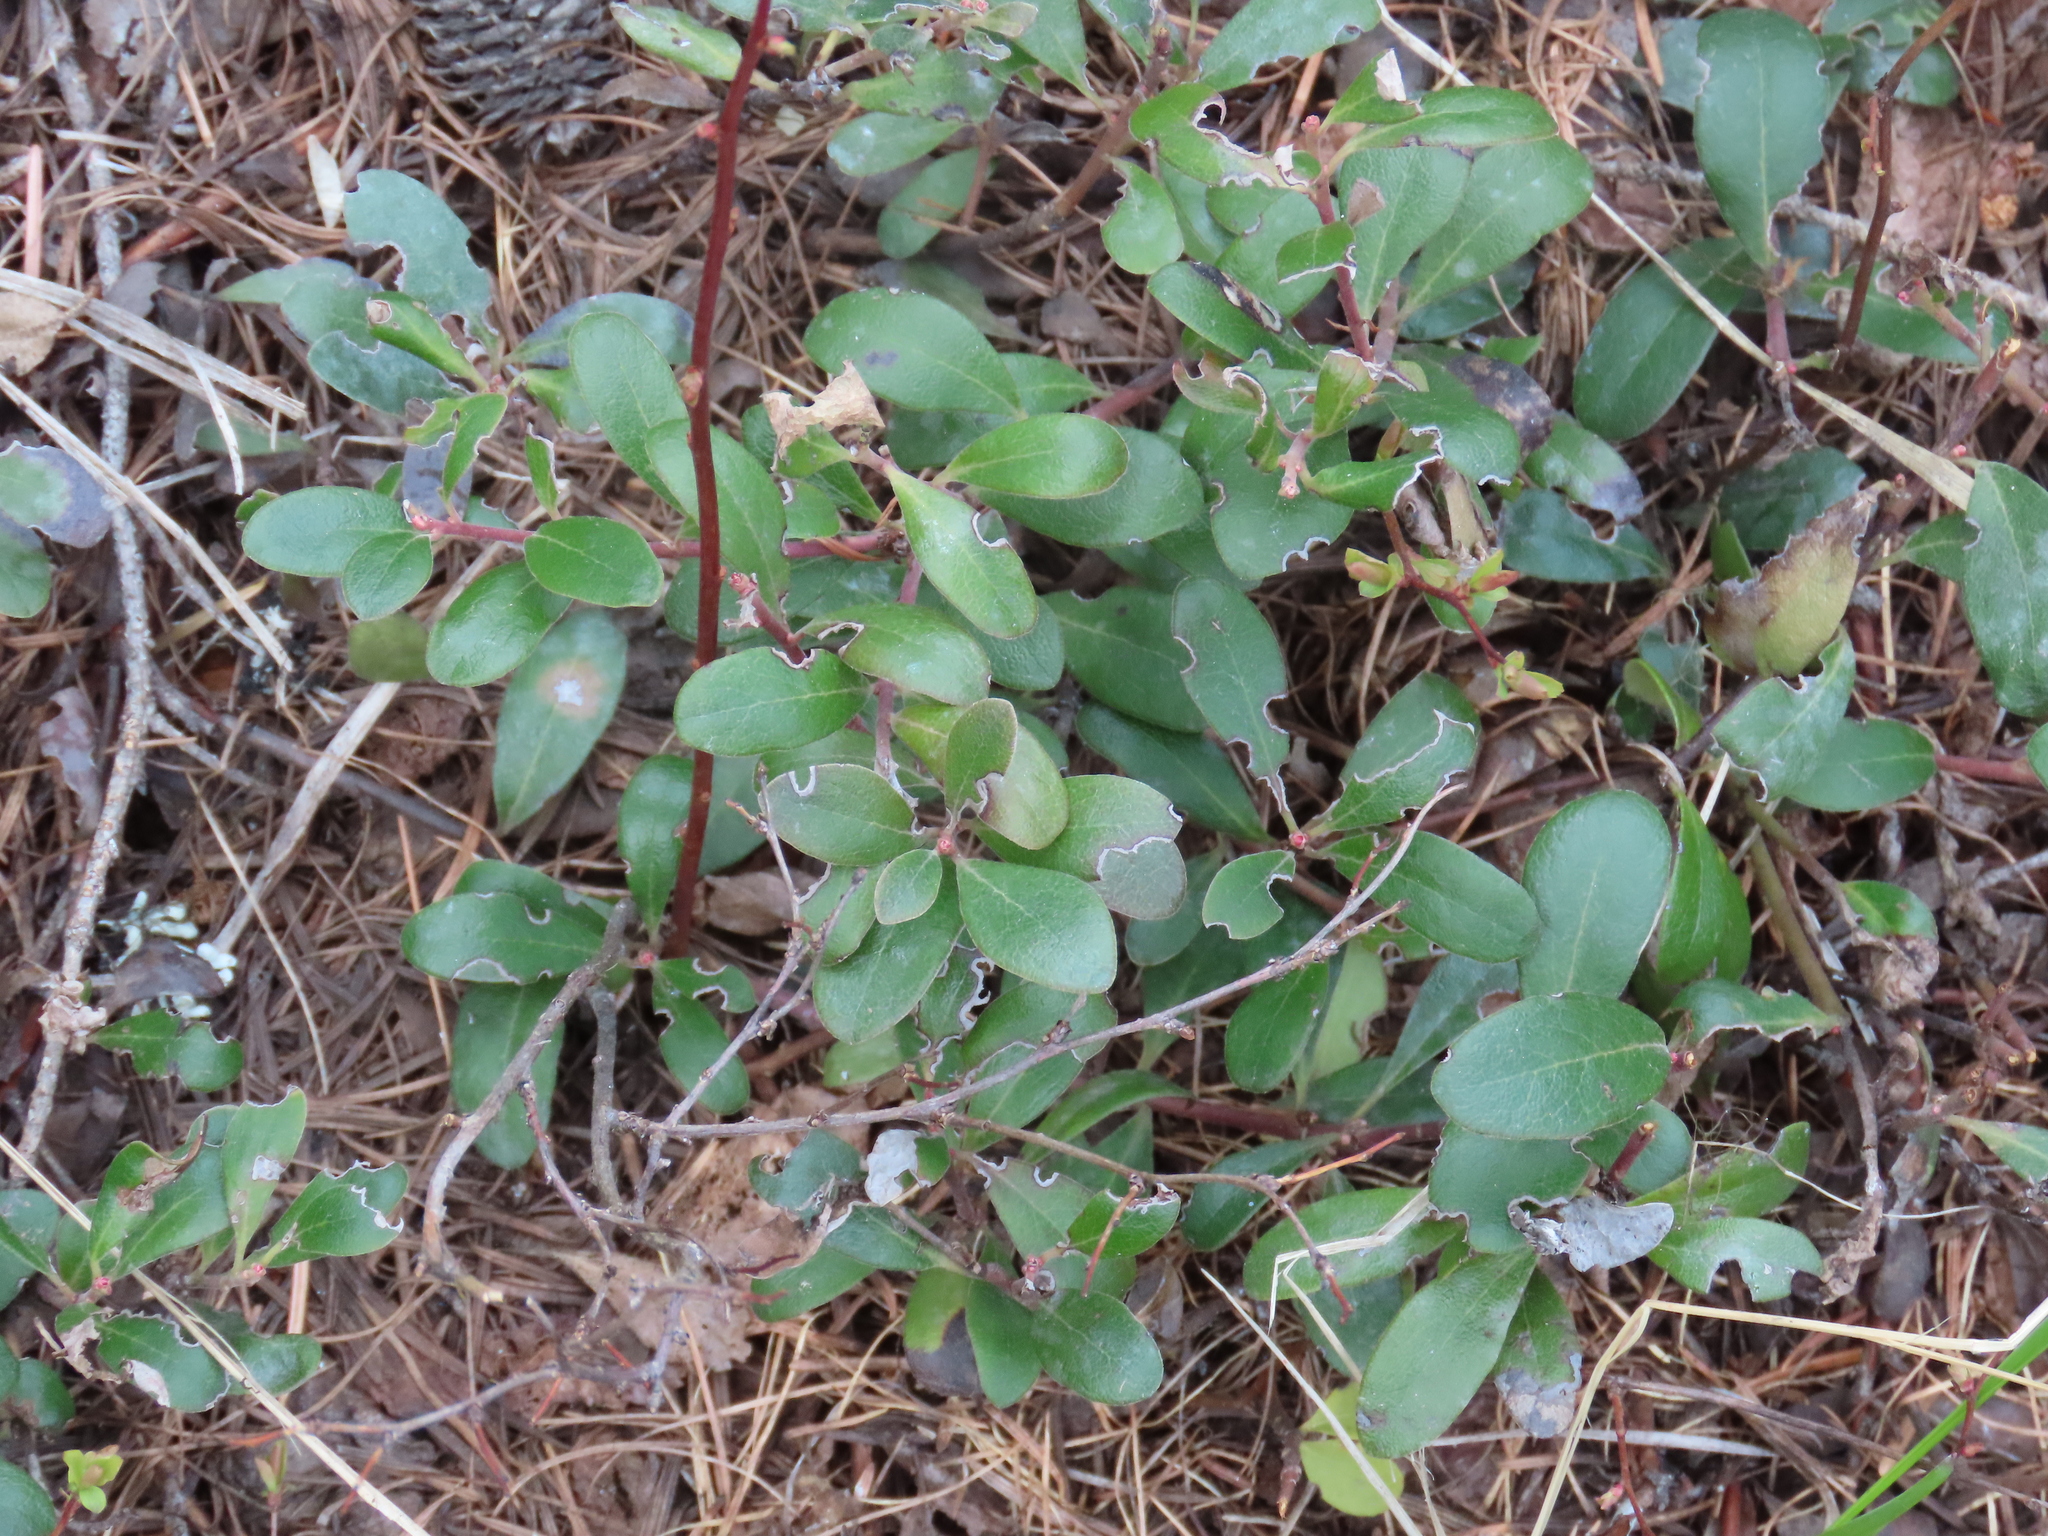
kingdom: Plantae
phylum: Tracheophyta
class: Magnoliopsida
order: Ericales
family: Ericaceae
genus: Arctostaphylos
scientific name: Arctostaphylos uva-ursi
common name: Bearberry
